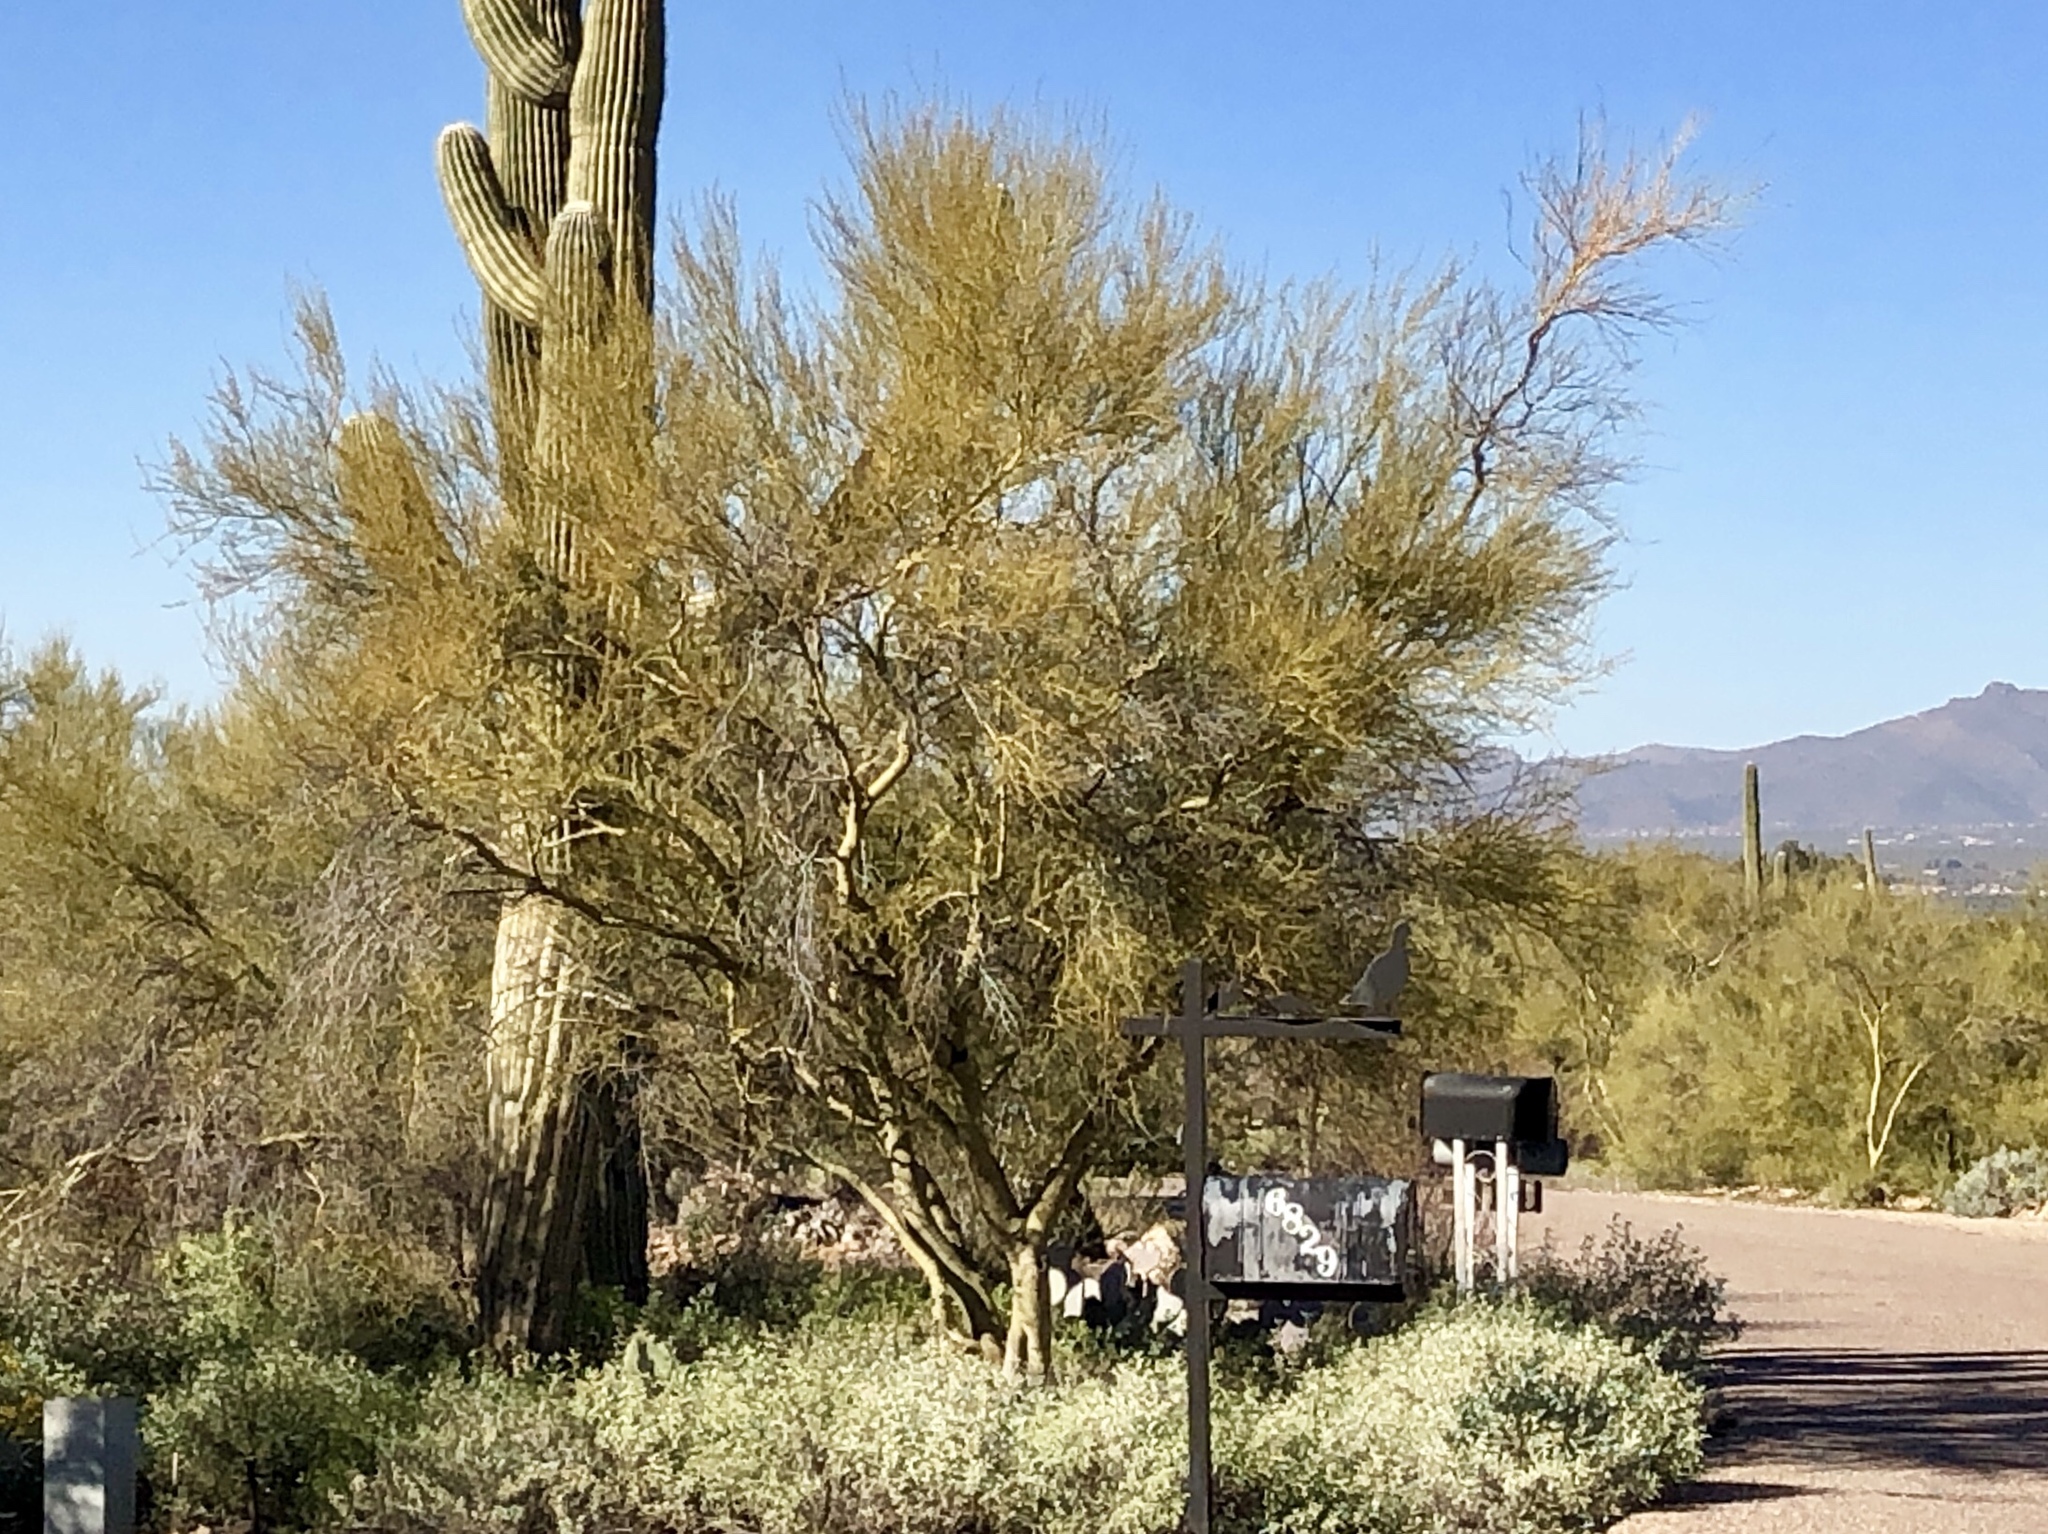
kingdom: Plantae
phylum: Tracheophyta
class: Magnoliopsida
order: Fabales
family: Fabaceae
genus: Parkinsonia
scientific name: Parkinsonia microphylla
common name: Yellow paloverde
